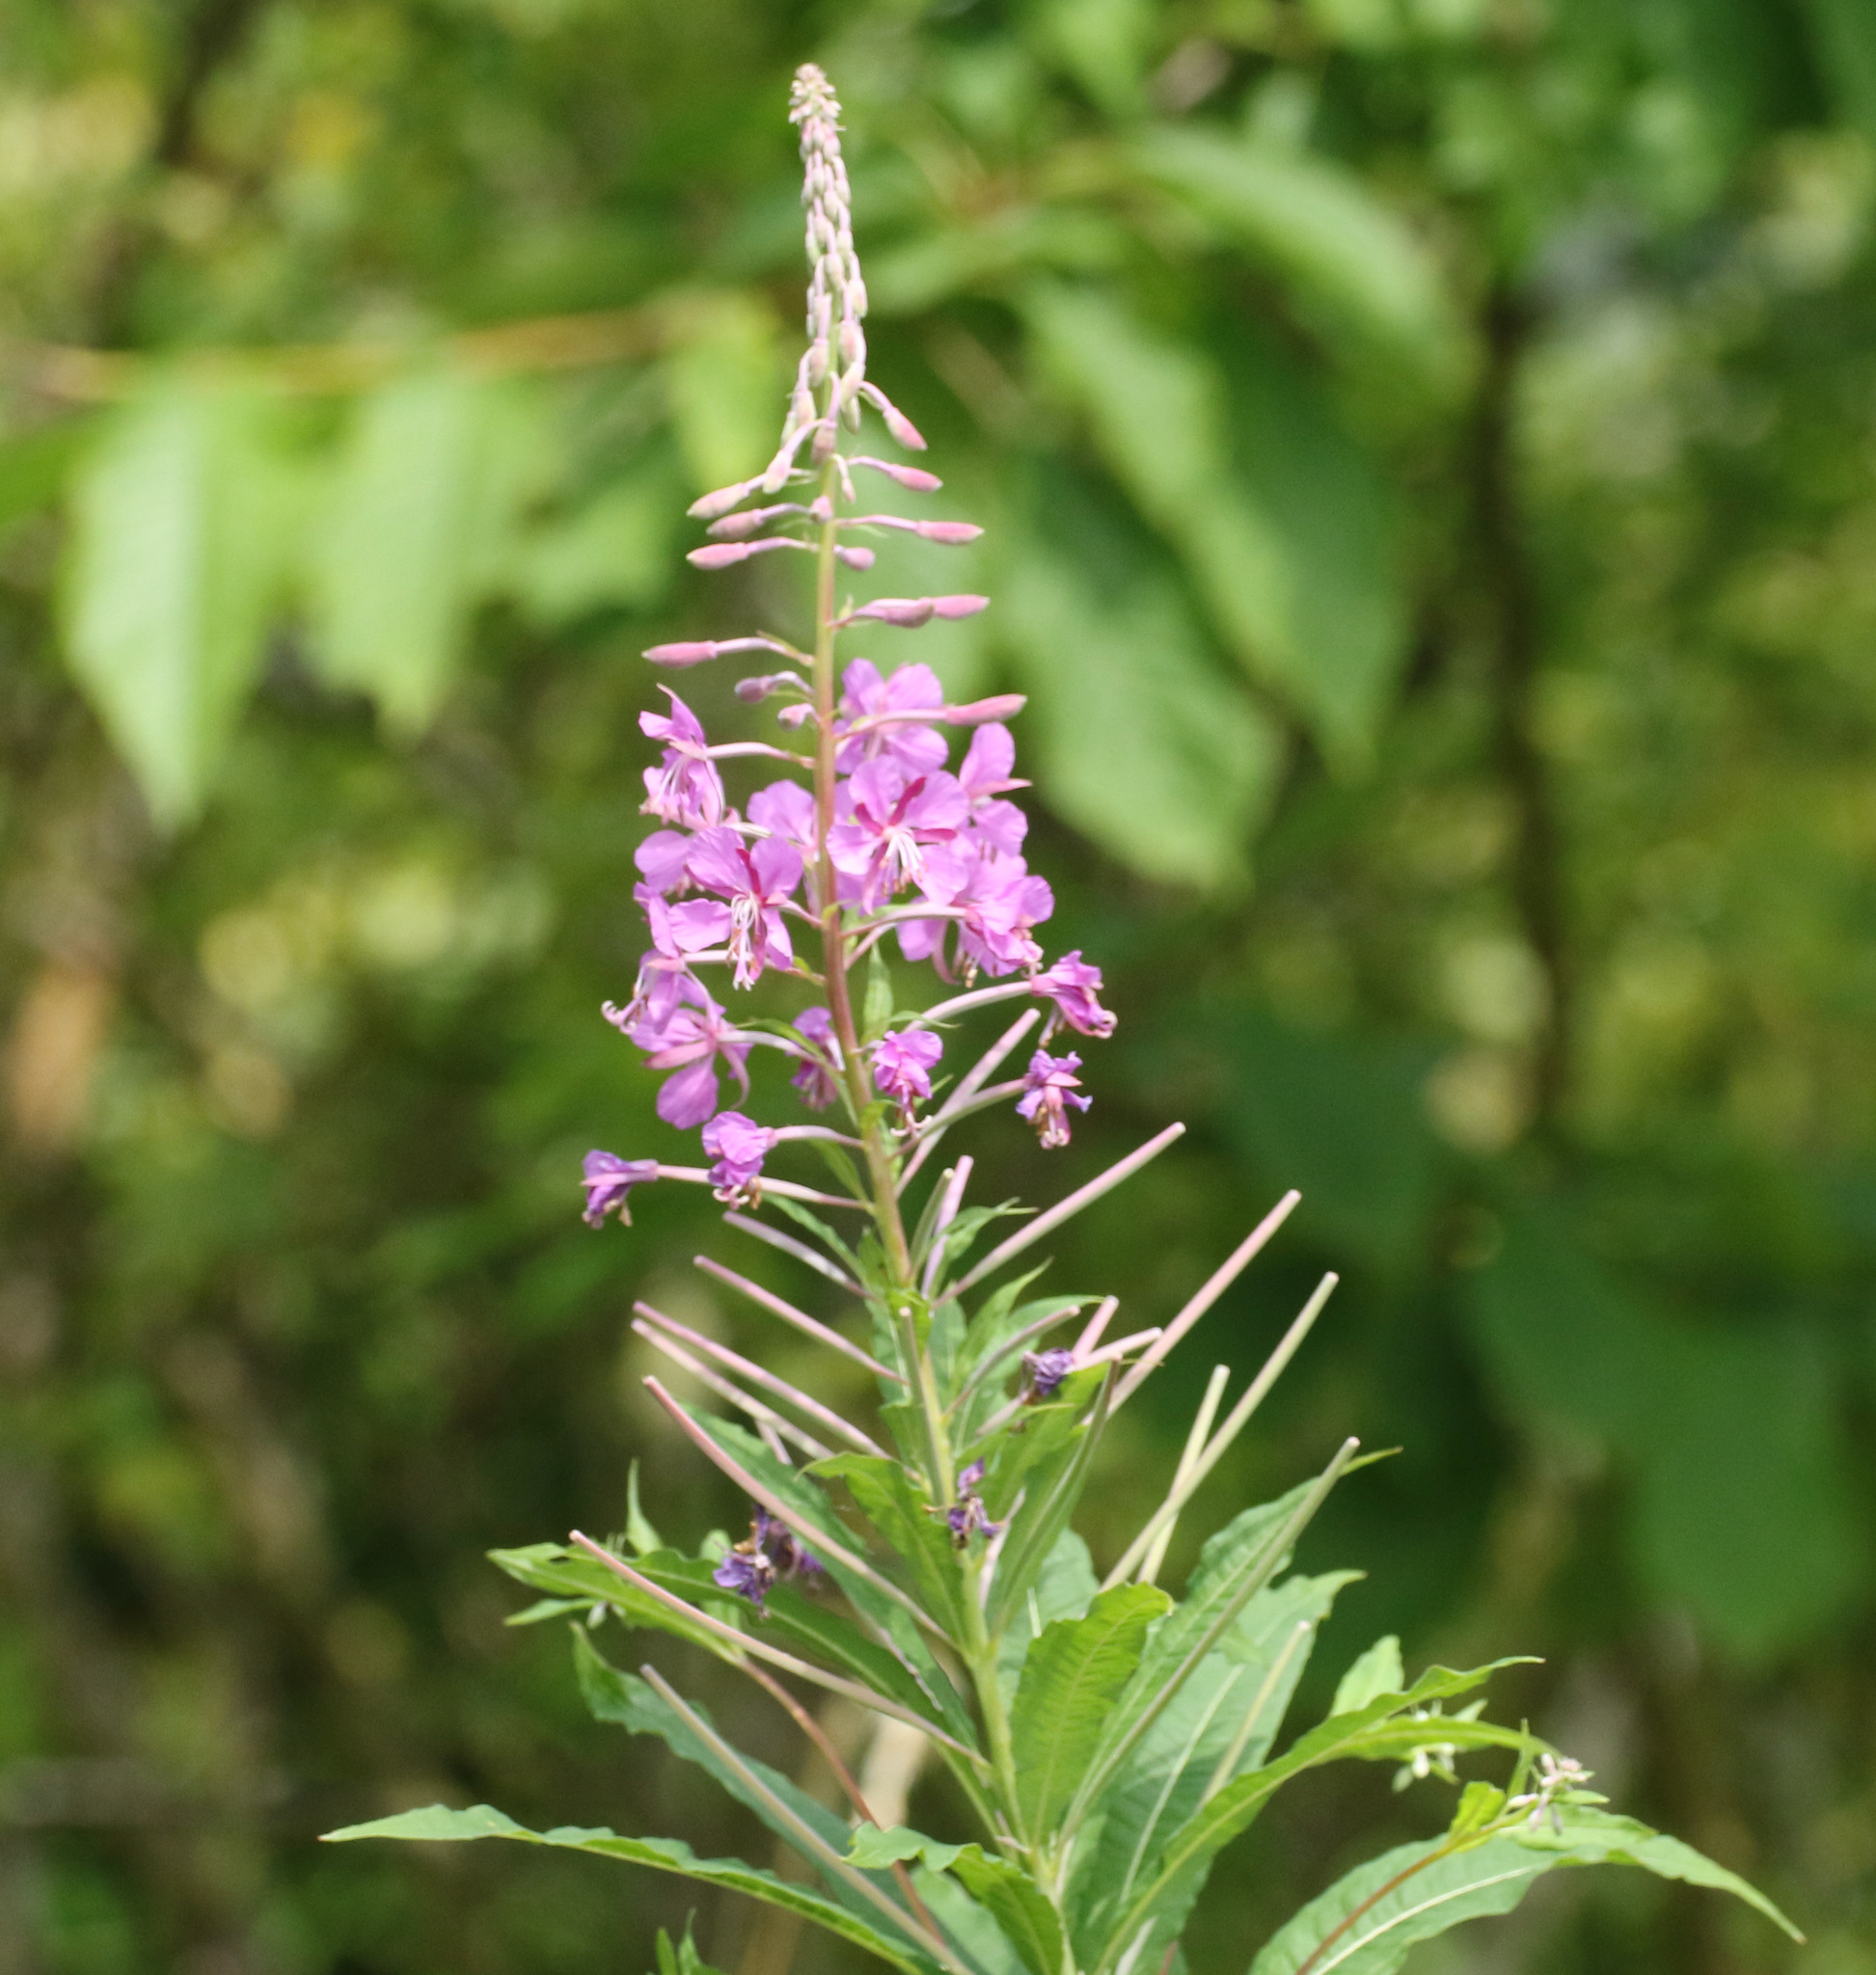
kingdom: Plantae
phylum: Tracheophyta
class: Magnoliopsida
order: Myrtales
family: Onagraceae
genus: Chamaenerion
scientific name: Chamaenerion angustifolium
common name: Fireweed
